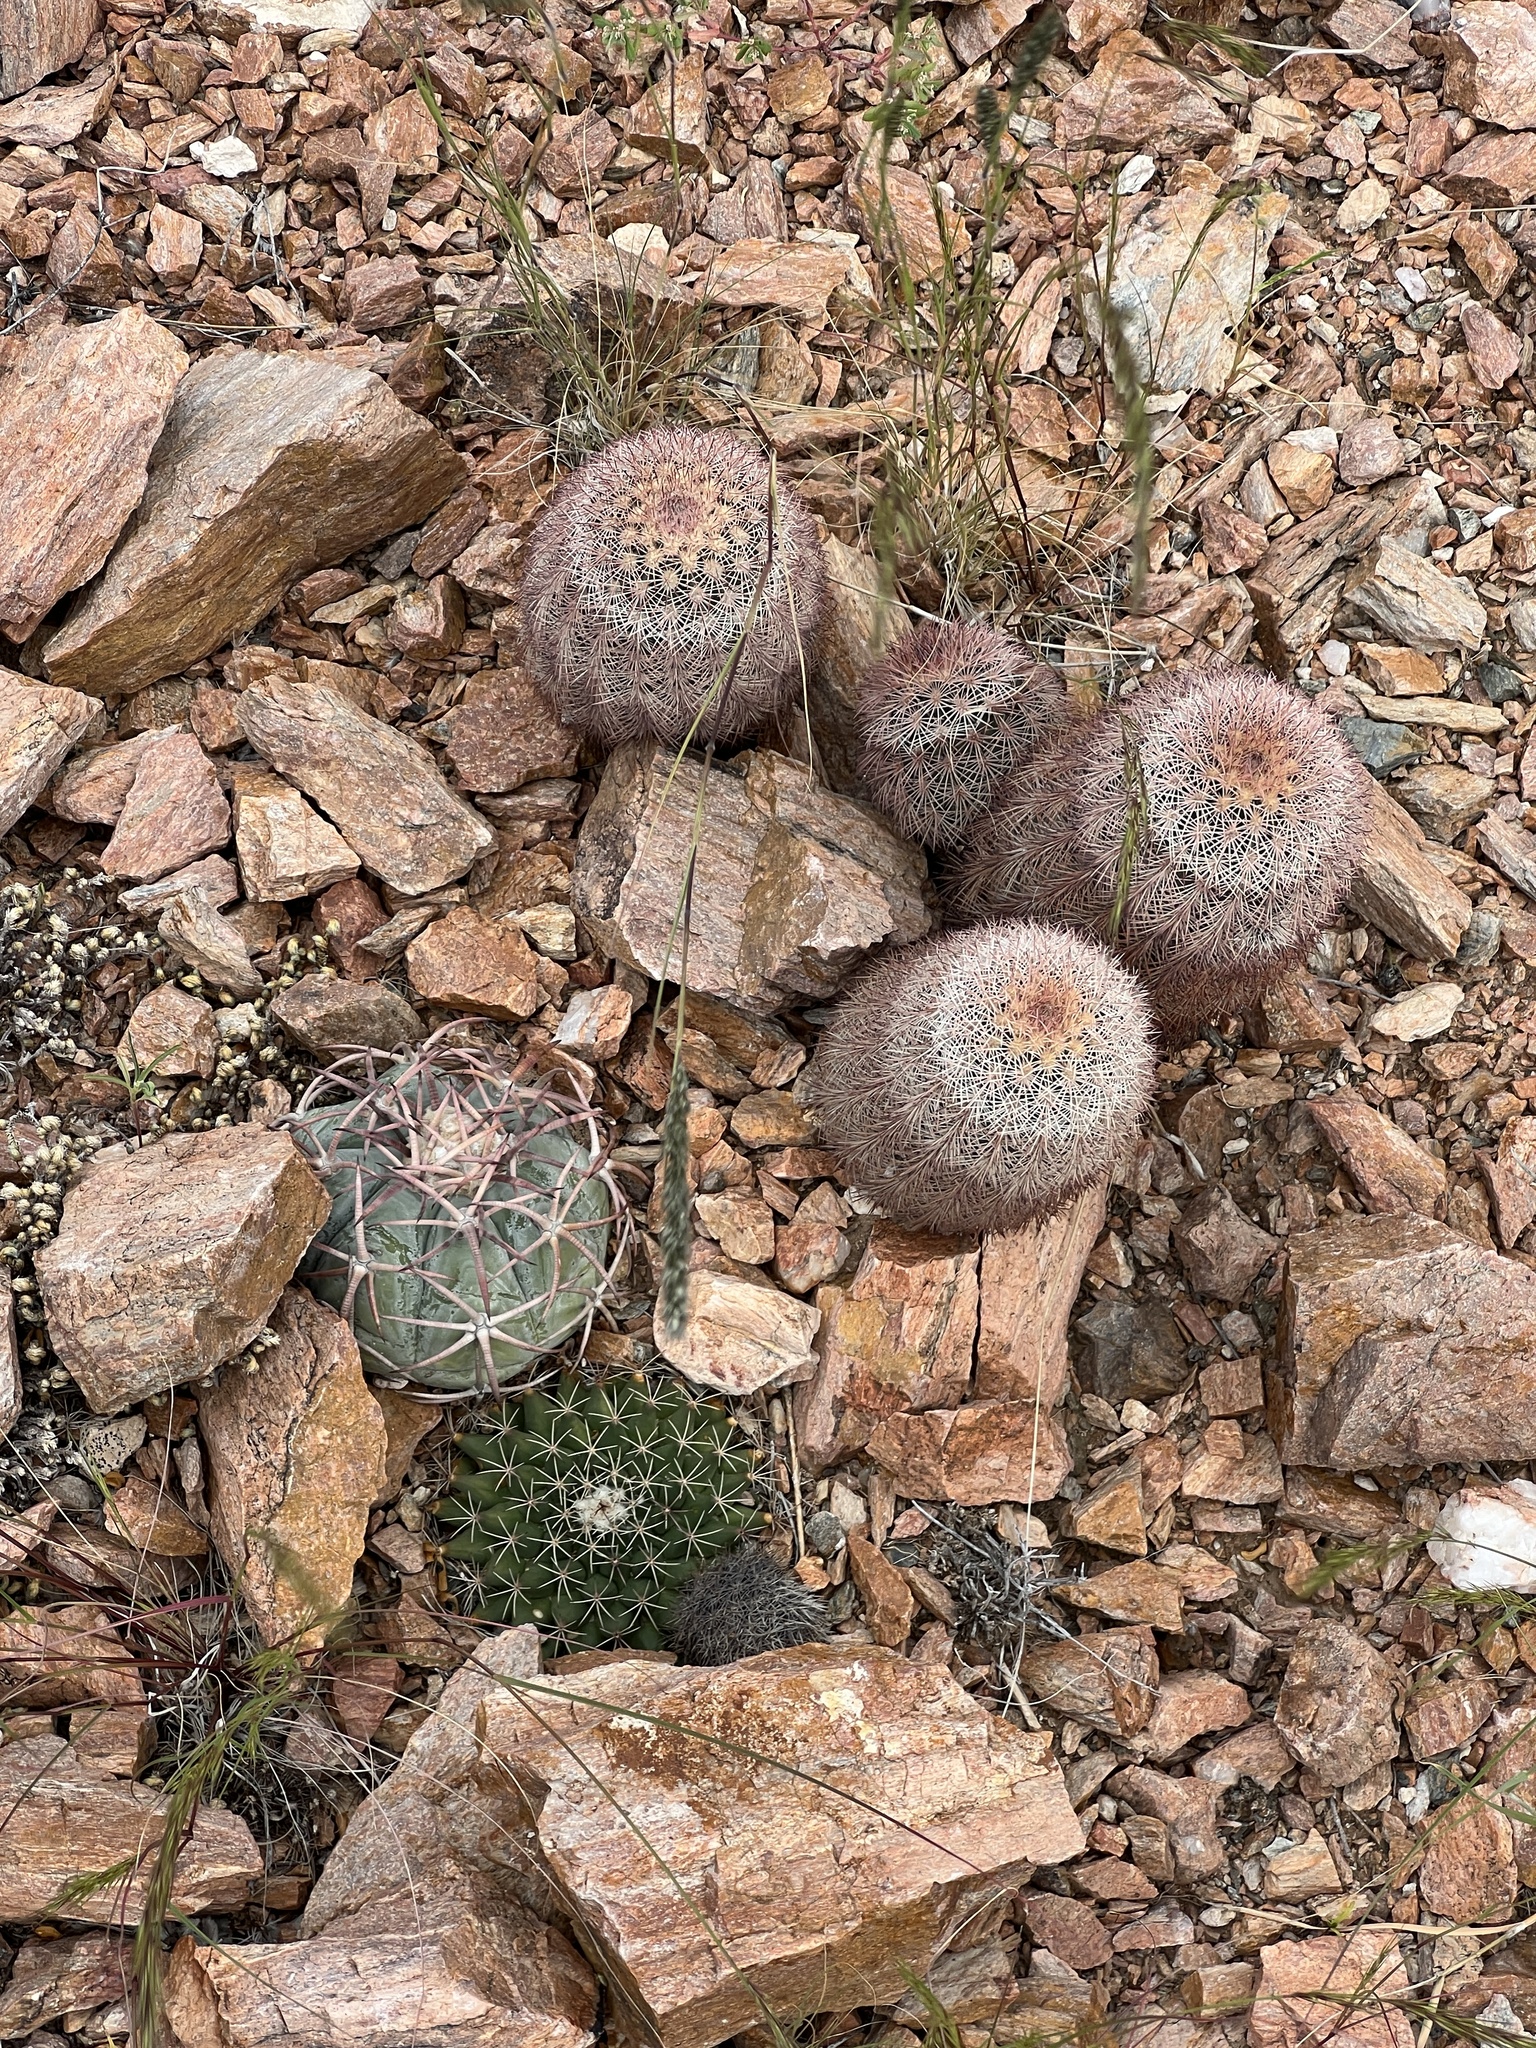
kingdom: Plantae
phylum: Tracheophyta
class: Magnoliopsida
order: Caryophyllales
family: Cactaceae
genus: Echinocereus
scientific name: Echinocereus dasyacanthus
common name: Spiny hedgehog cactus
